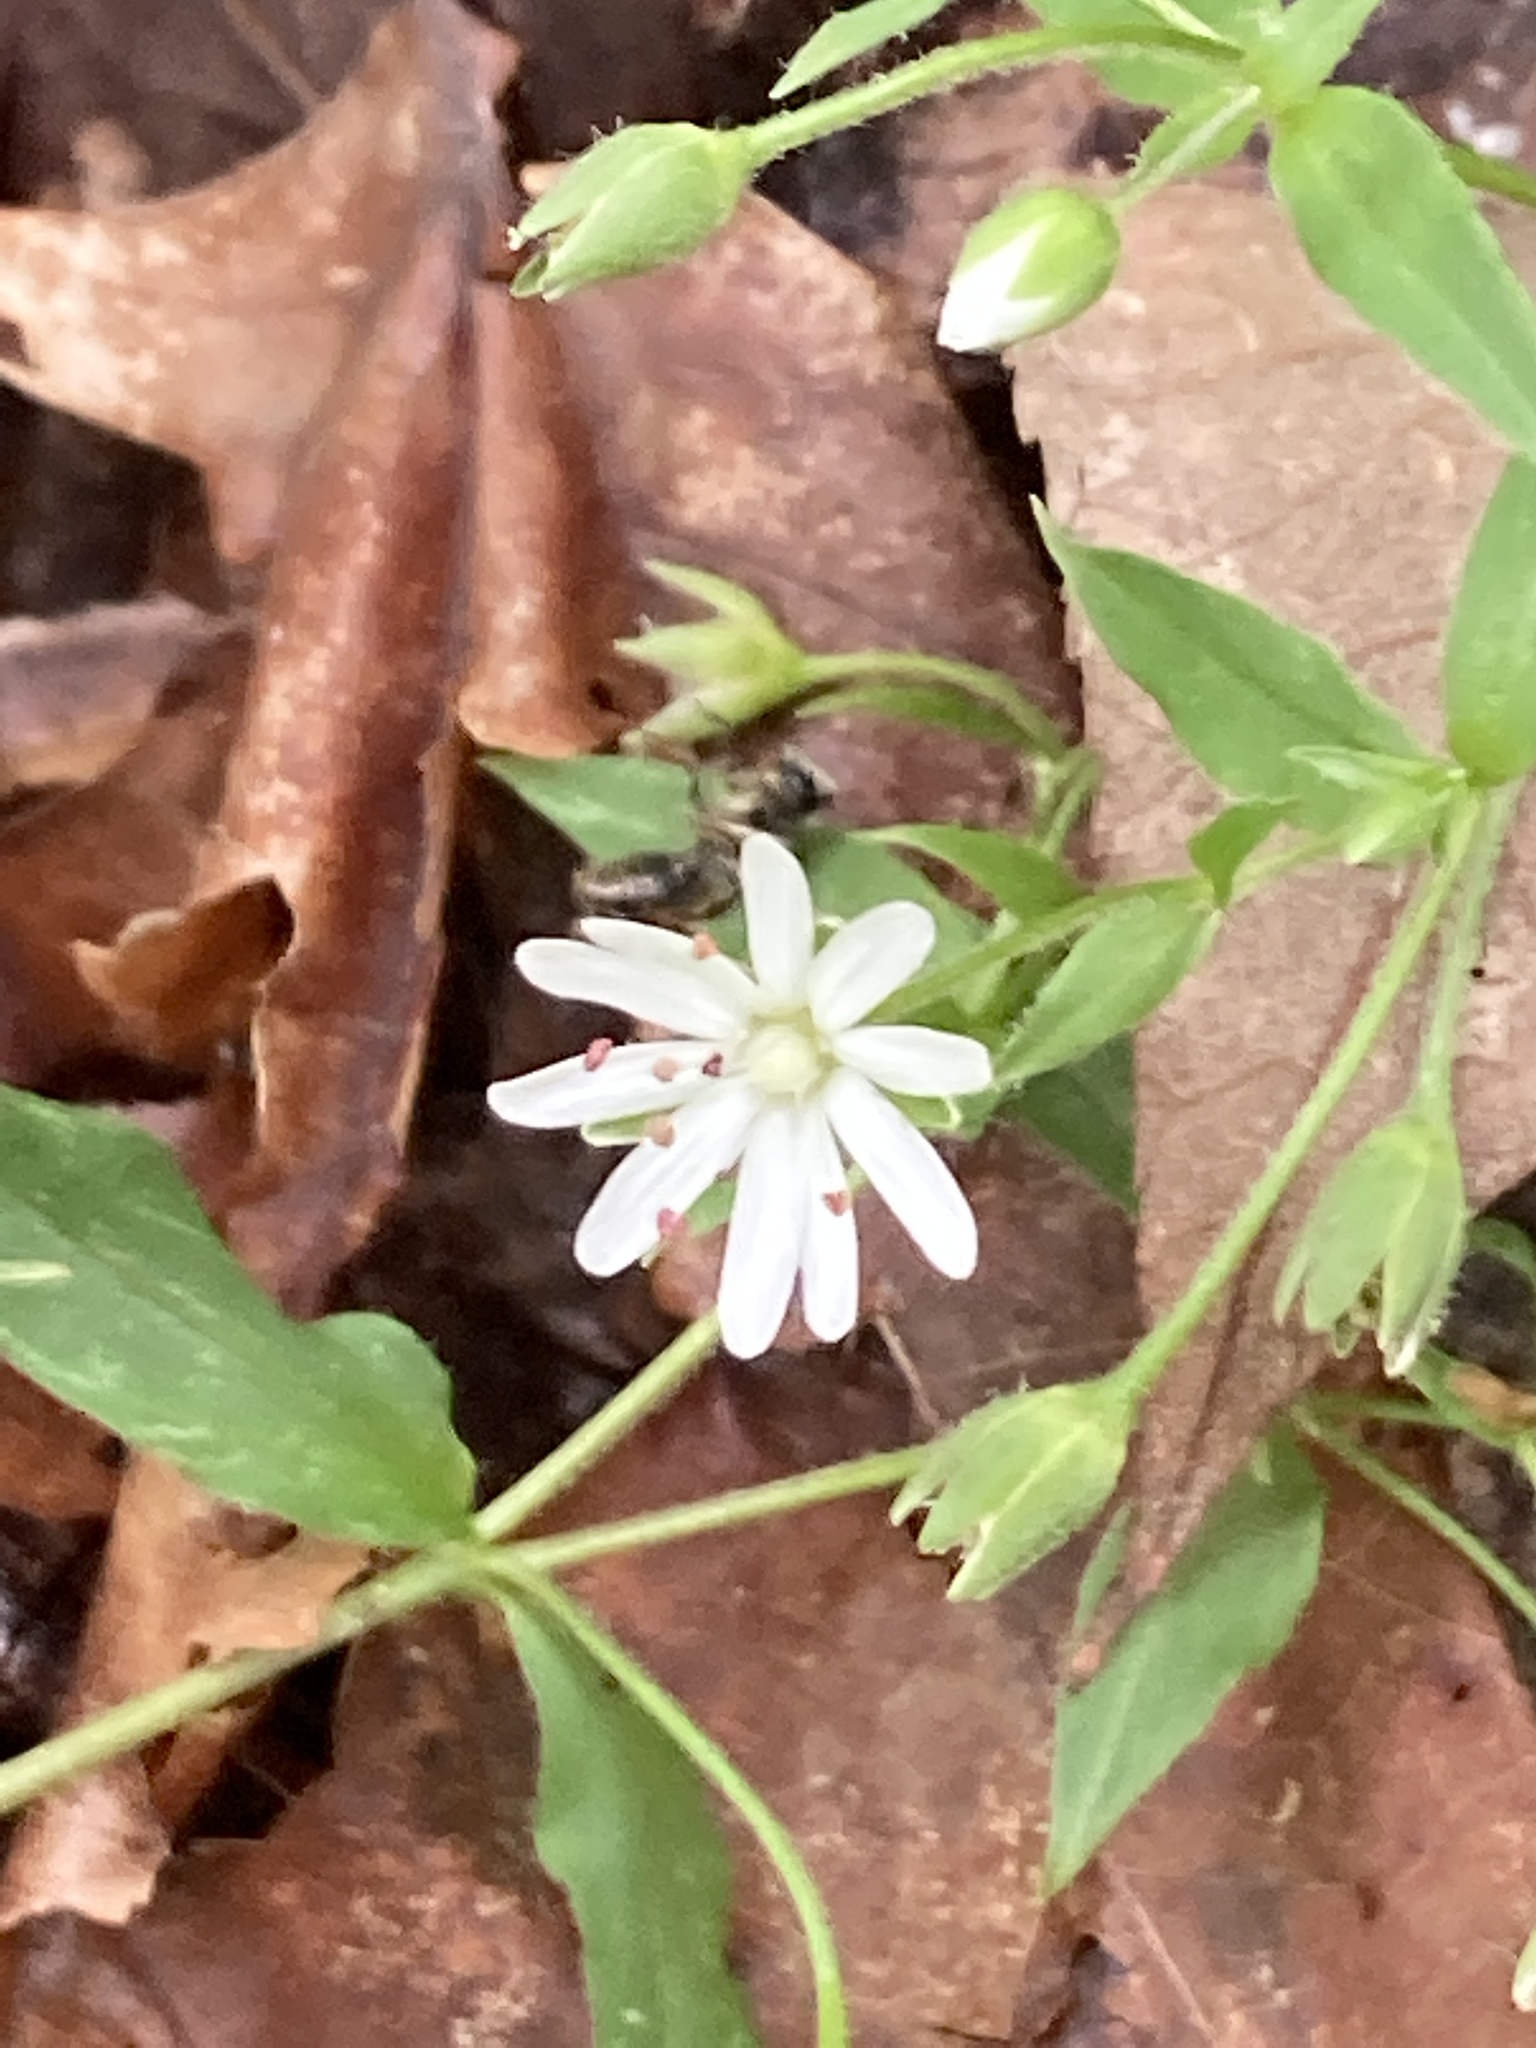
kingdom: Plantae
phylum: Tracheophyta
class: Magnoliopsida
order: Caryophyllales
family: Caryophyllaceae
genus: Stellaria
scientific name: Stellaria pubera
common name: Star chickweed
